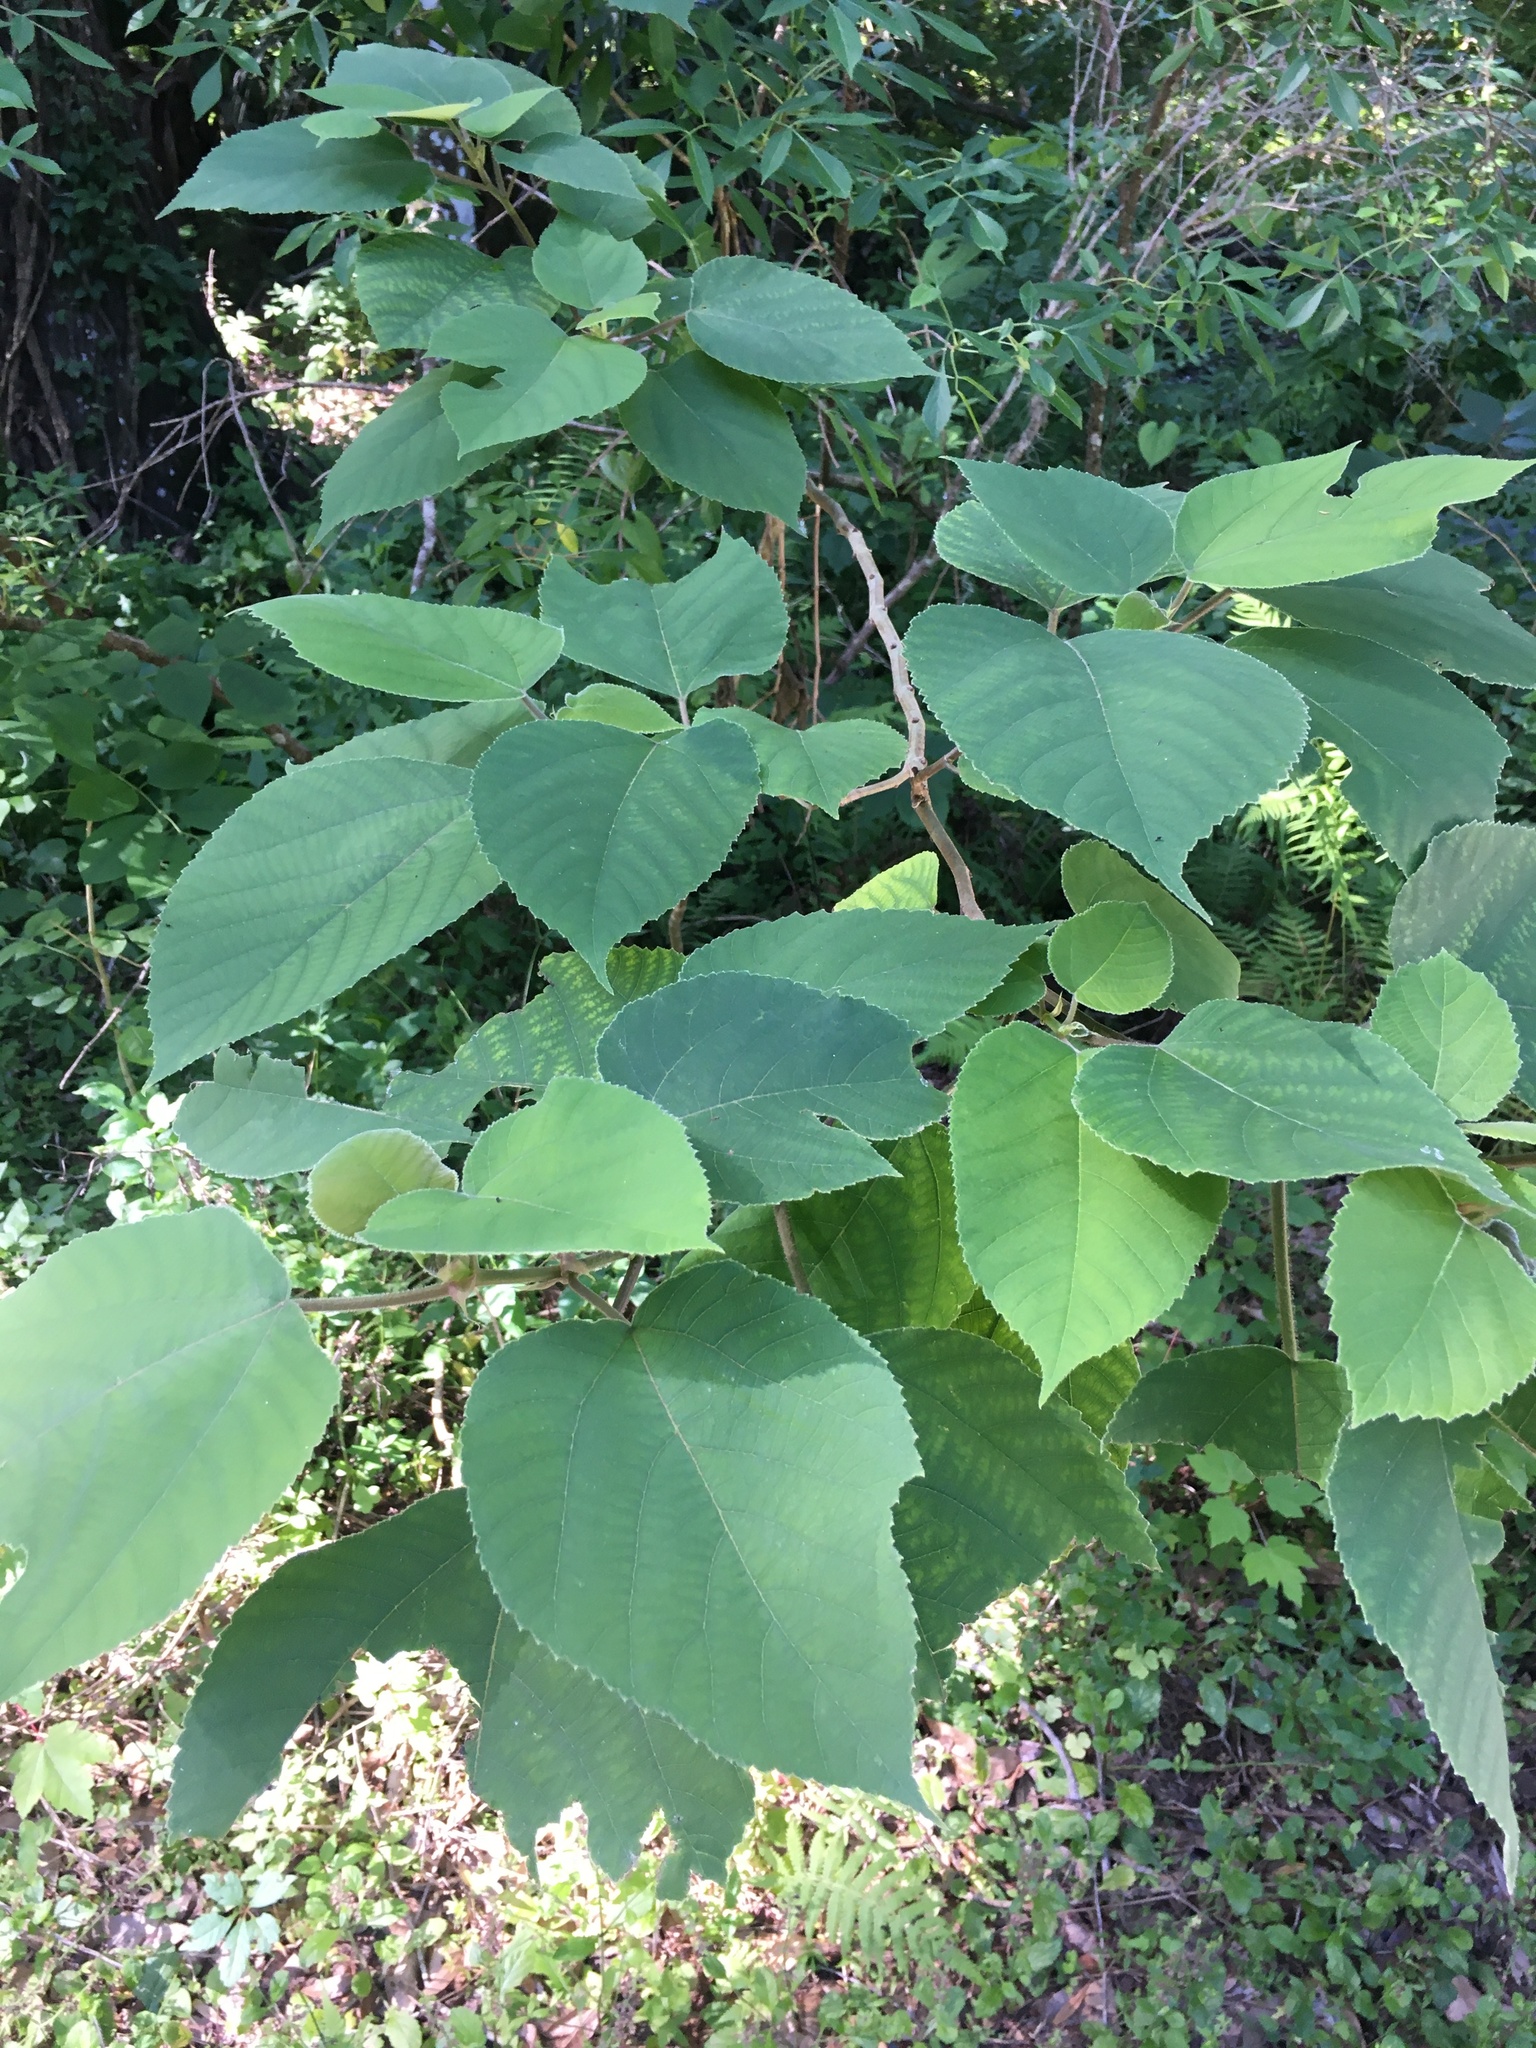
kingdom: Plantae
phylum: Tracheophyta
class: Magnoliopsida
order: Rosales
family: Moraceae
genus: Broussonetia
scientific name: Broussonetia papyrifera
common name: Paper mulberry
